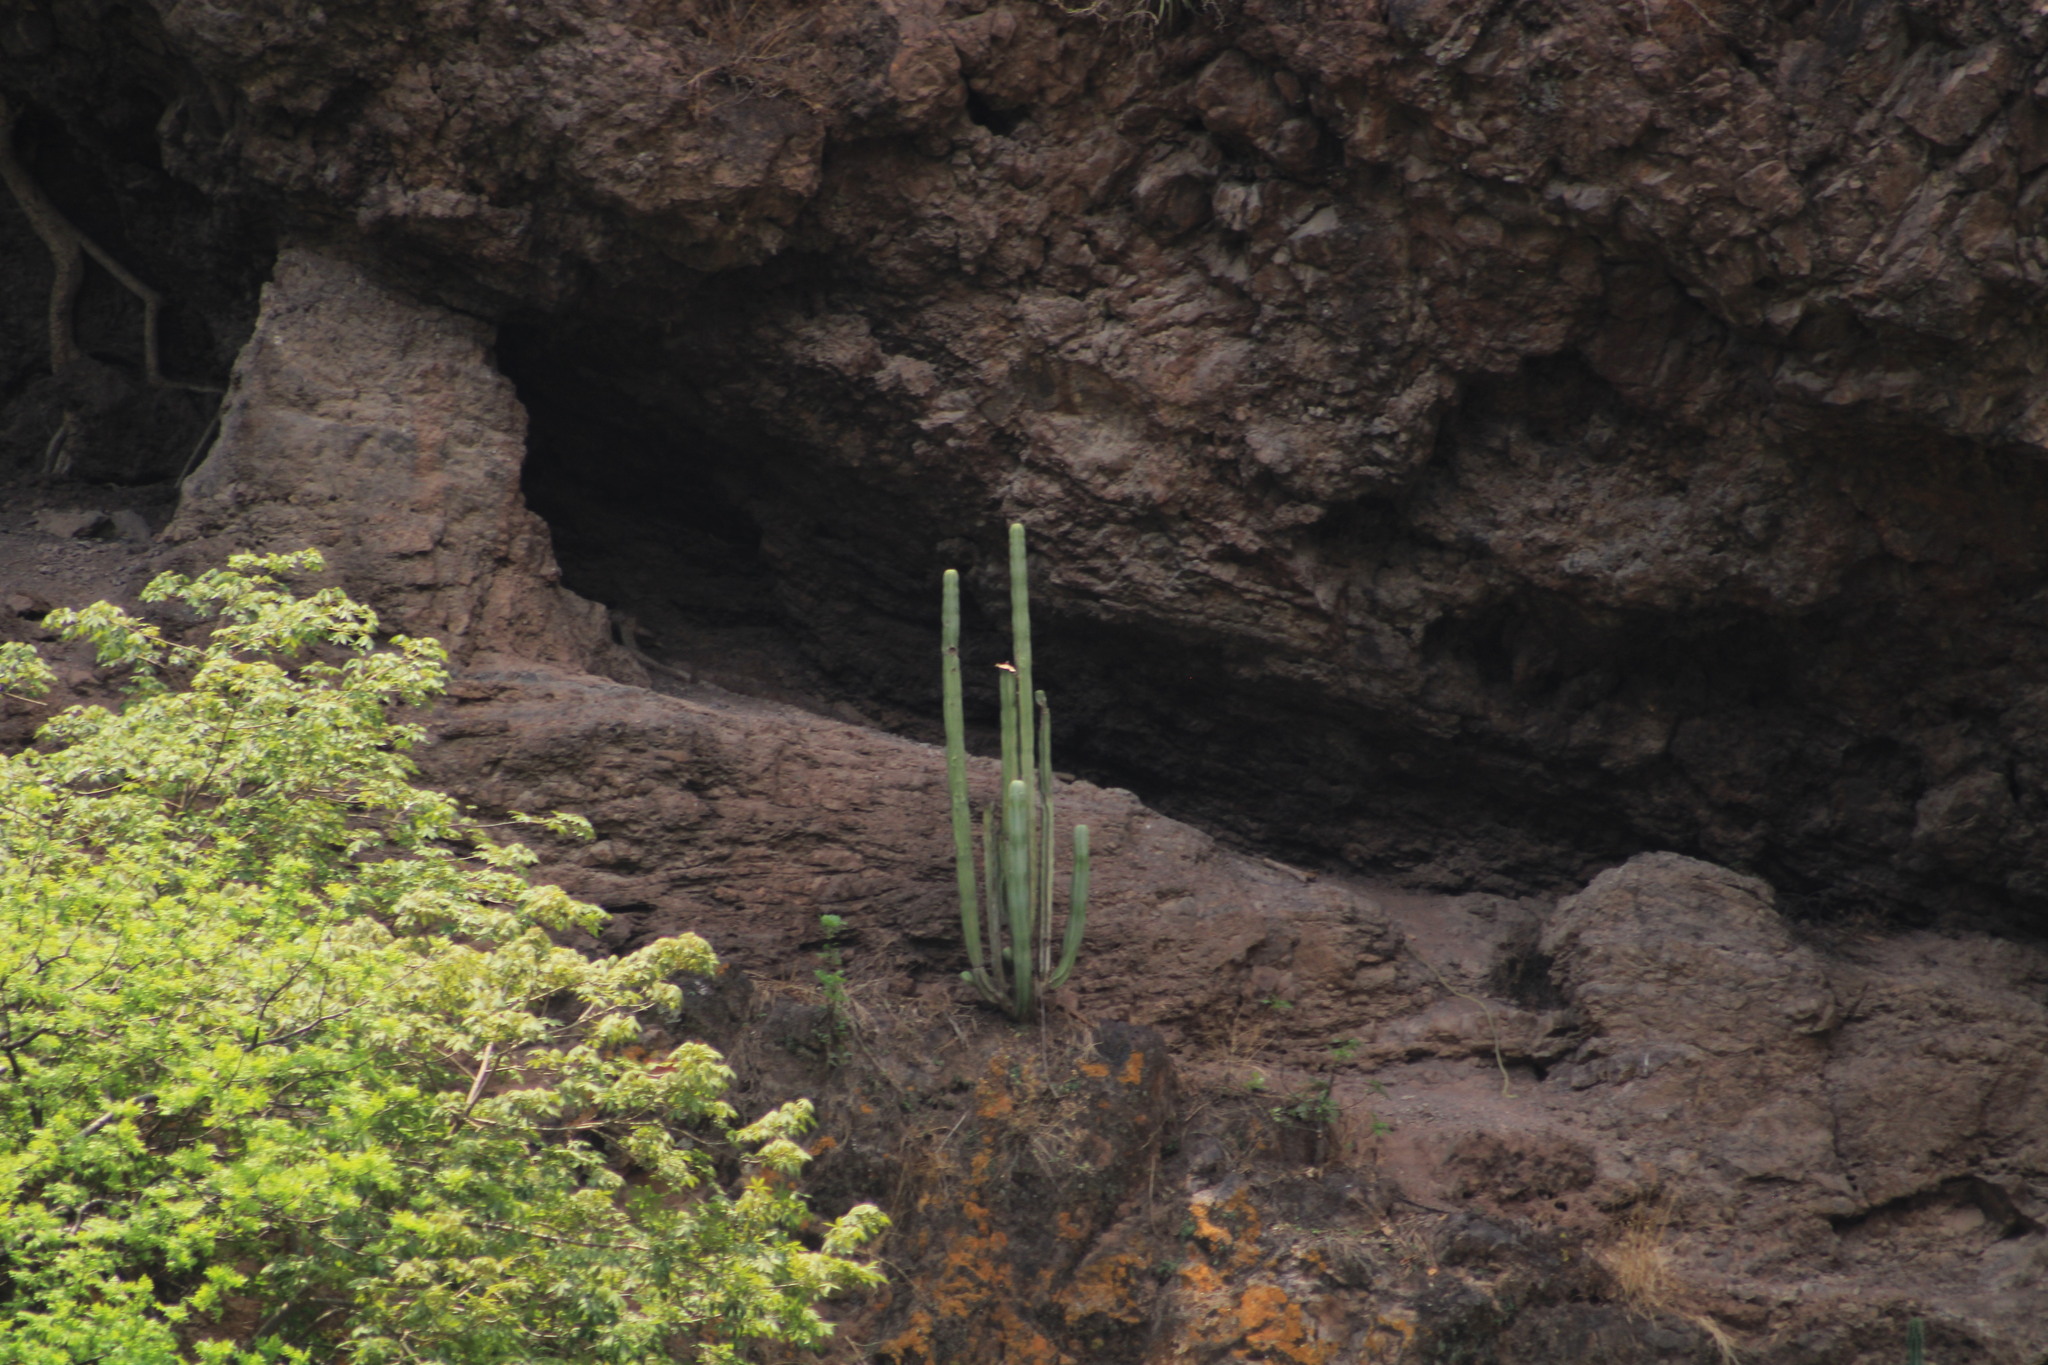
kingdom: Plantae
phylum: Tracheophyta
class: Magnoliopsida
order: Caryophyllales
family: Cactaceae
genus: Marginatocereus
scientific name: Marginatocereus marginatus
